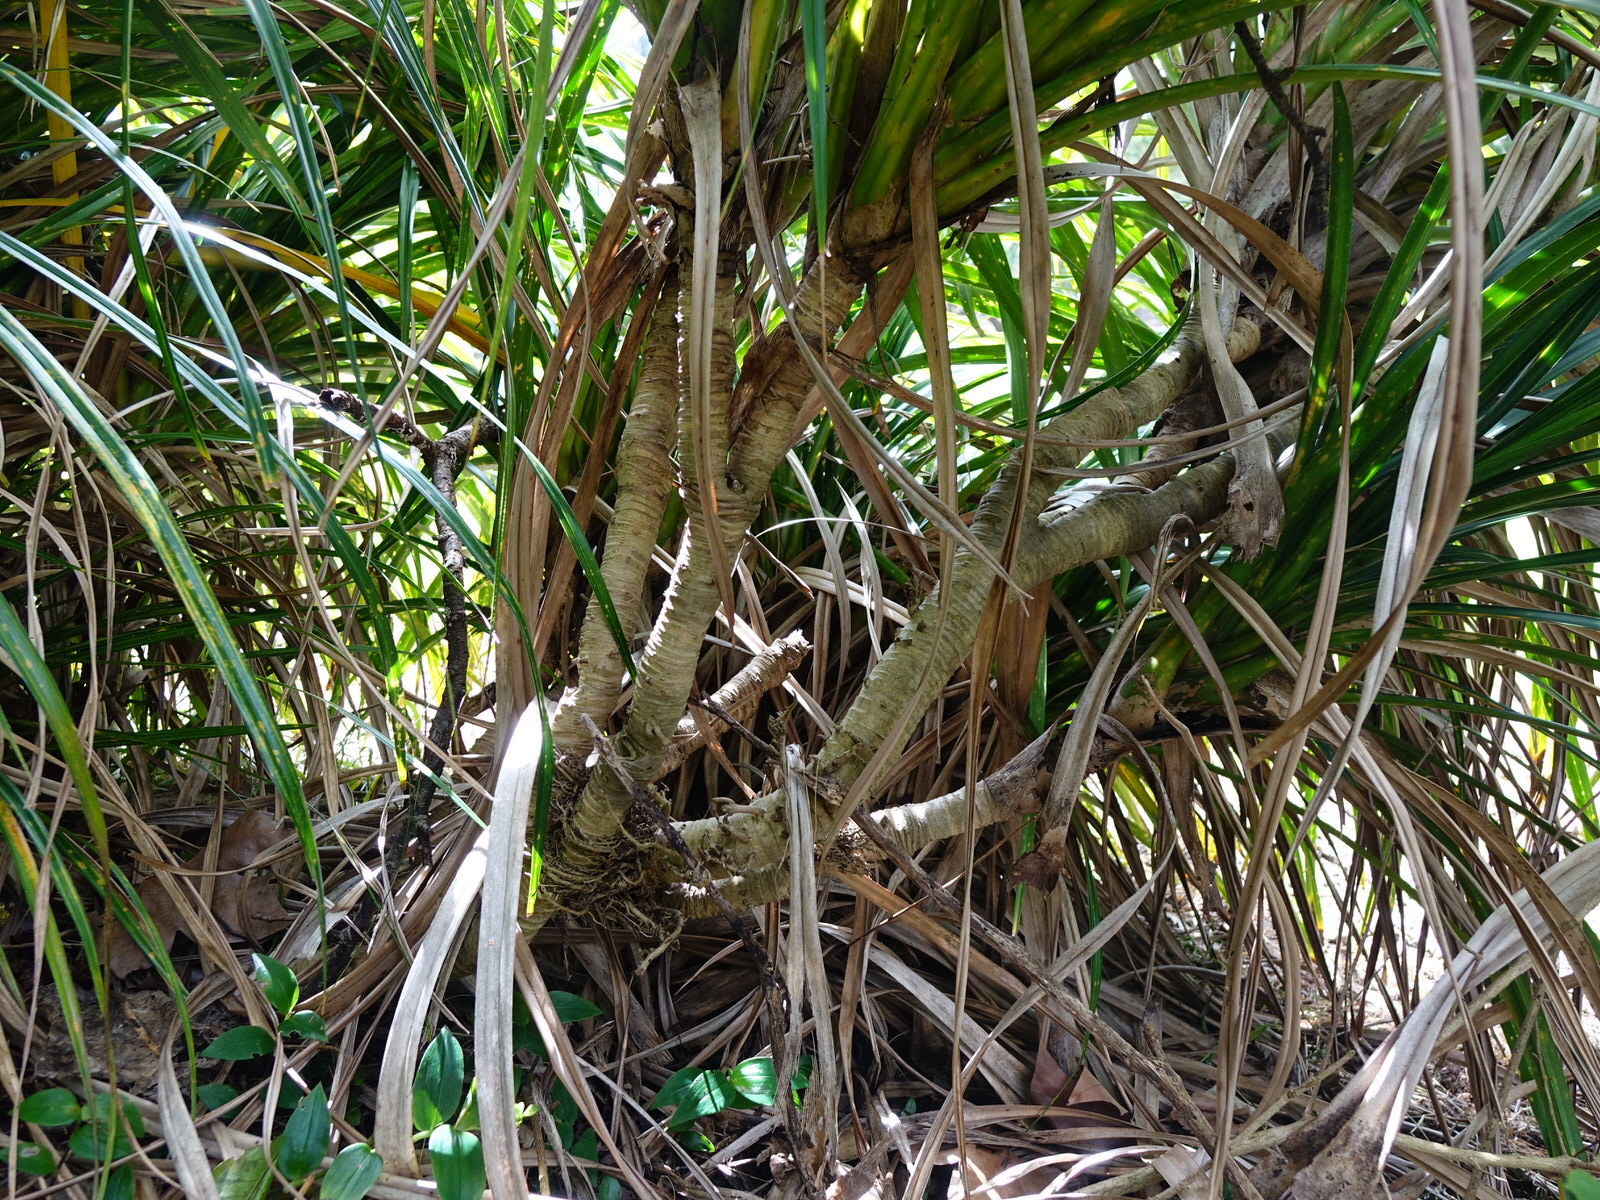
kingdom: Plantae
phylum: Tracheophyta
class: Liliopsida
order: Pandanales
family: Pandanaceae
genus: Freycinetia
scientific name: Freycinetia banksii
